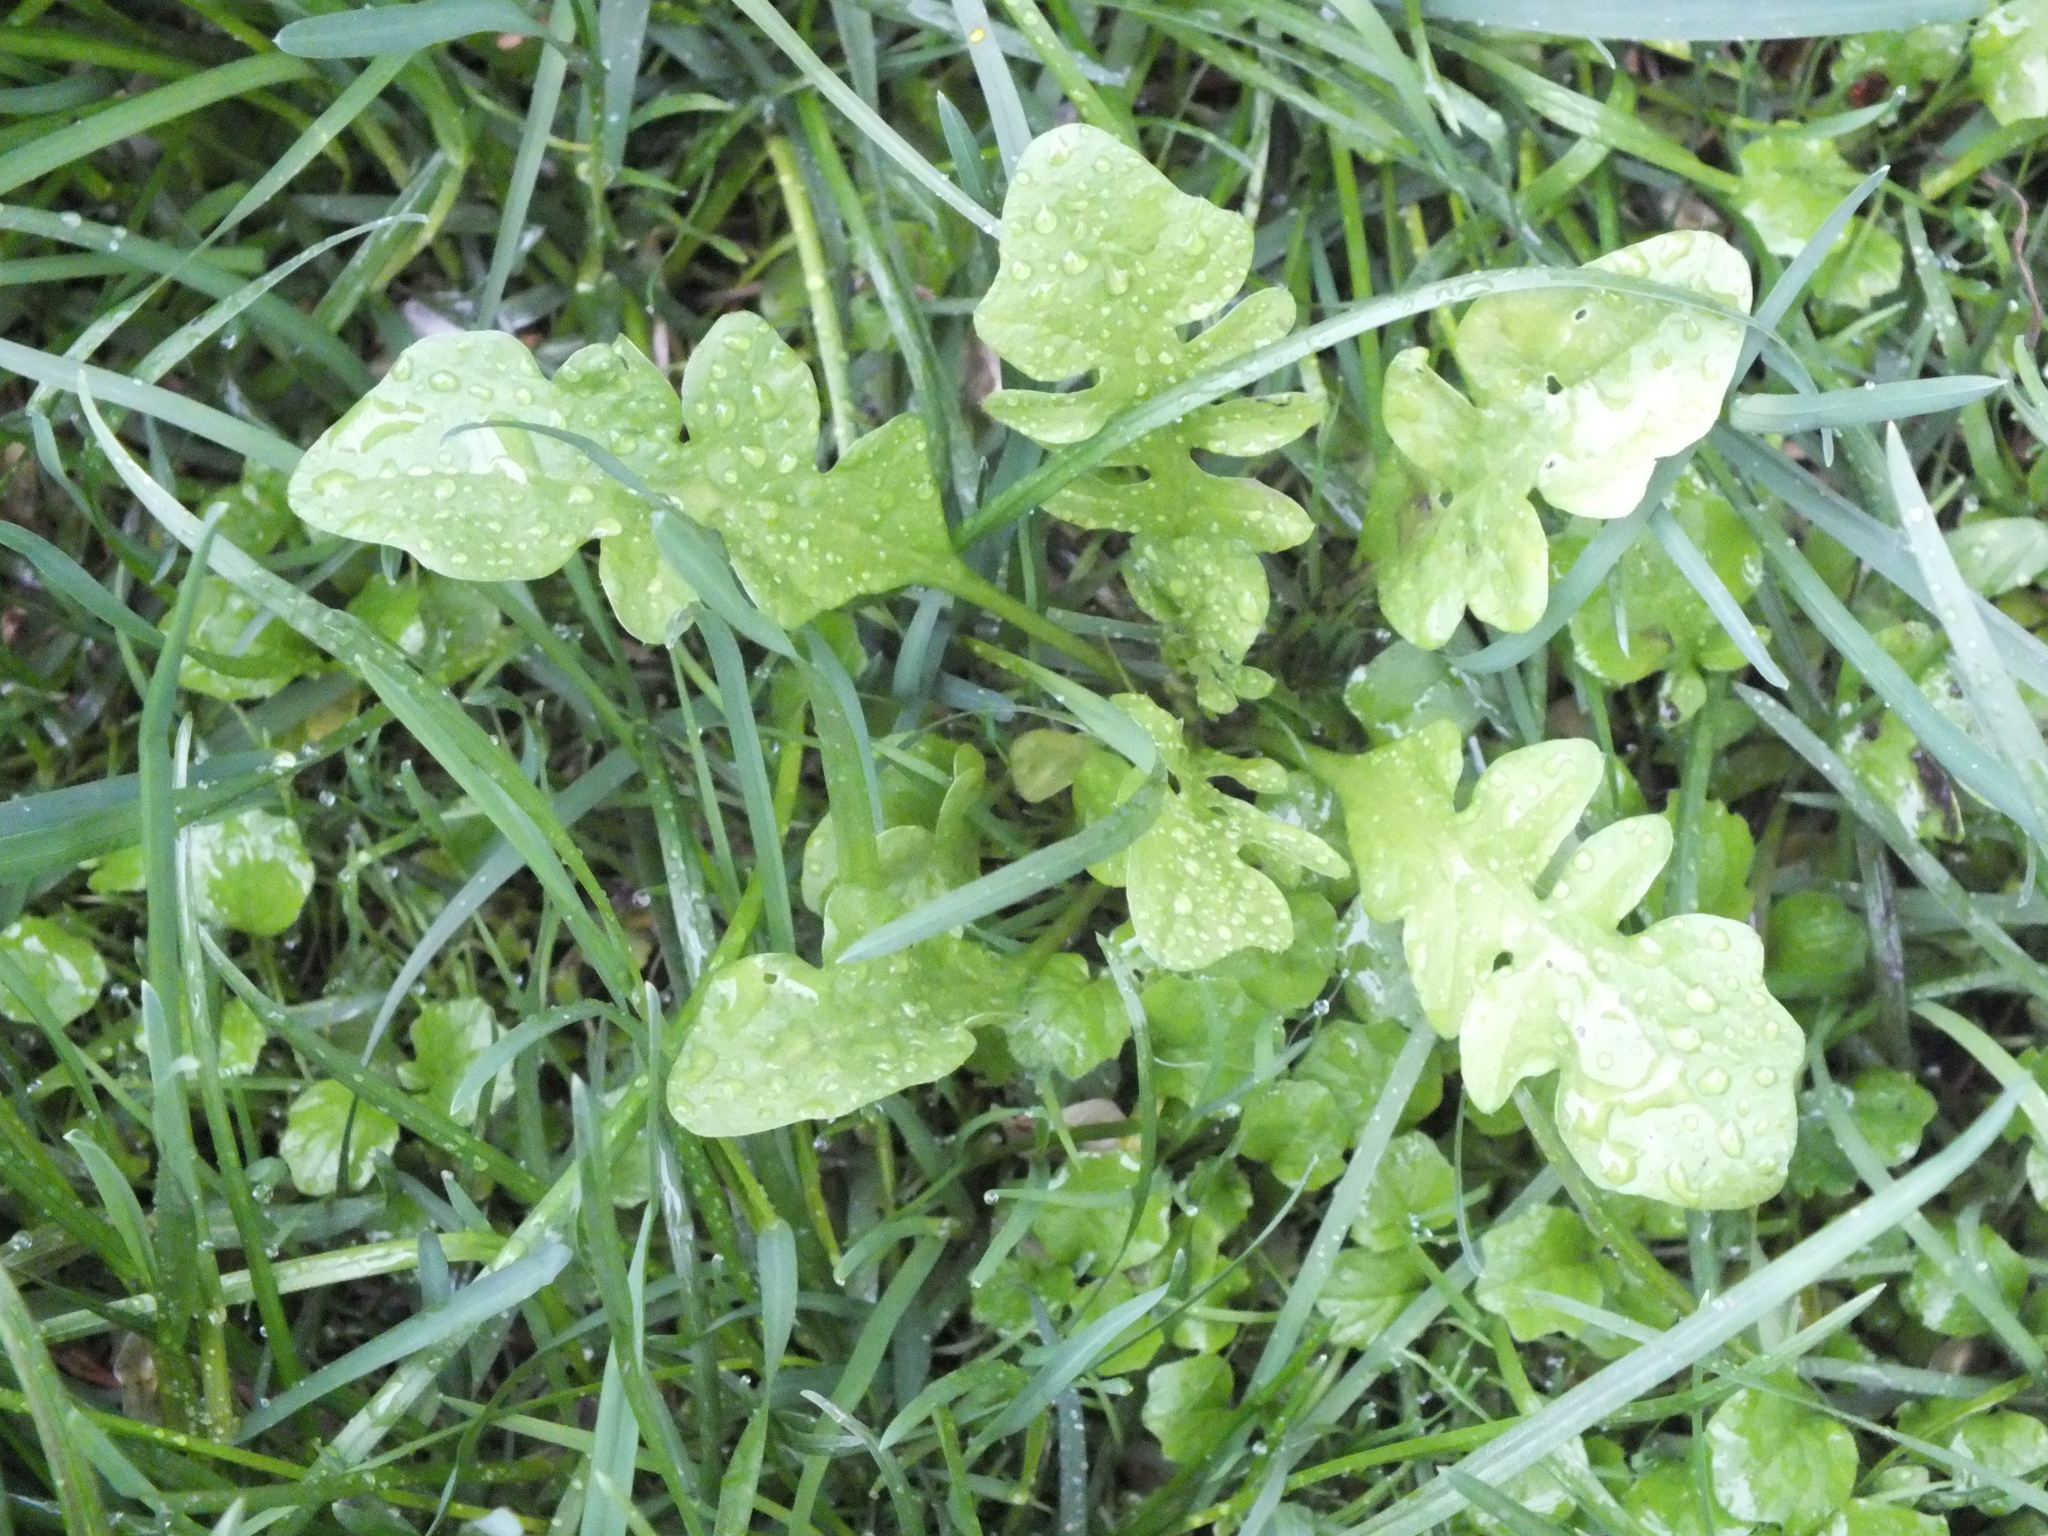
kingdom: Plantae
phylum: Tracheophyta
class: Magnoliopsida
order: Brassicales
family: Brassicaceae
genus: Capsella
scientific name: Capsella bursa-pastoris
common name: Shepherd's purse
